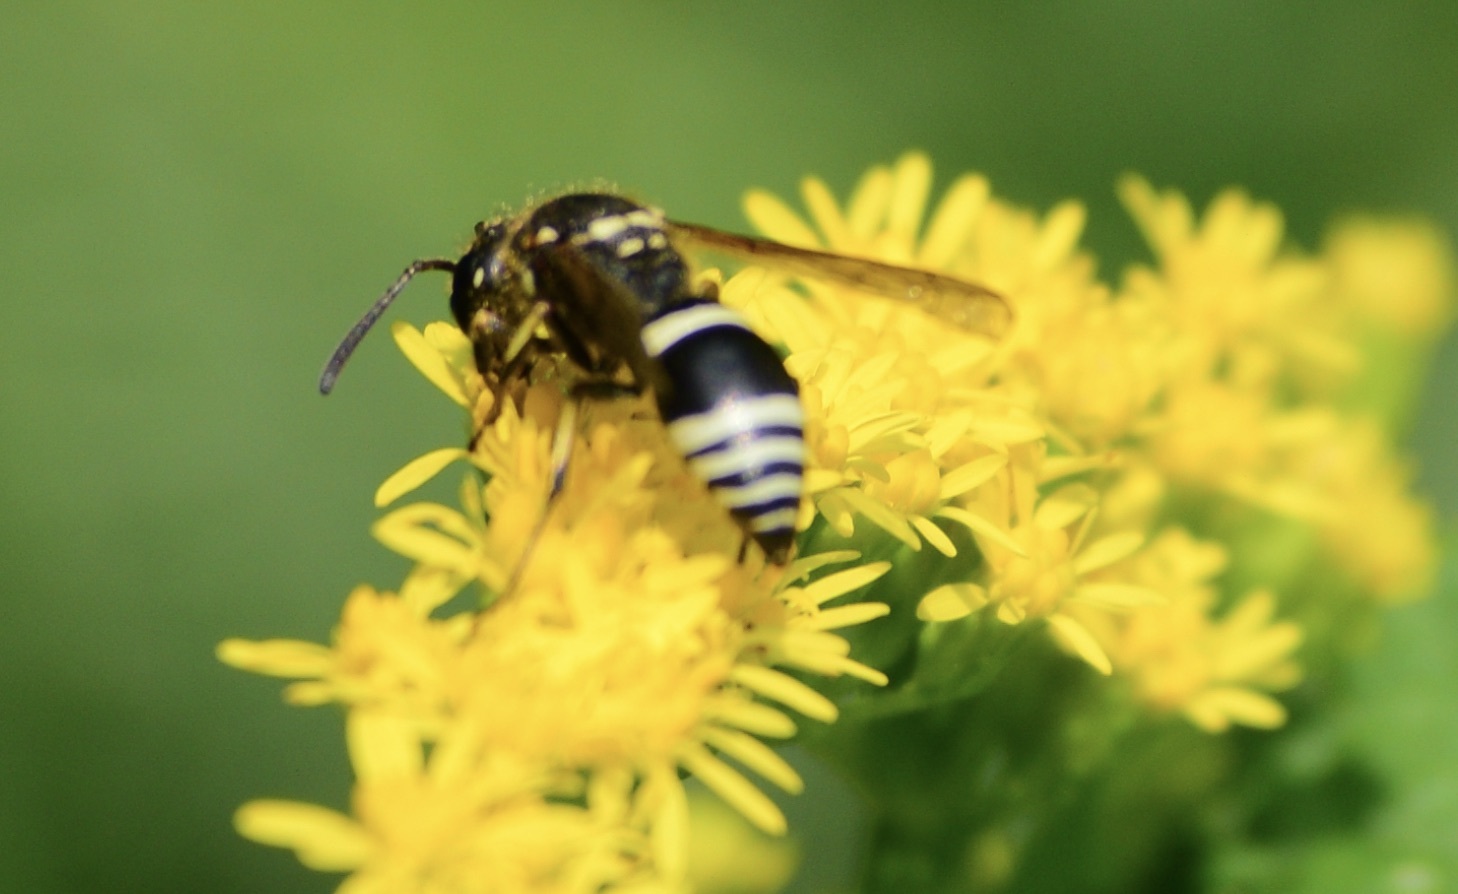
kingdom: Animalia
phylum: Arthropoda
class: Insecta
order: Hymenoptera
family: Vespidae
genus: Ancistrocerus
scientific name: Ancistrocerus albophaleratus
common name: White-banded potter wasp
